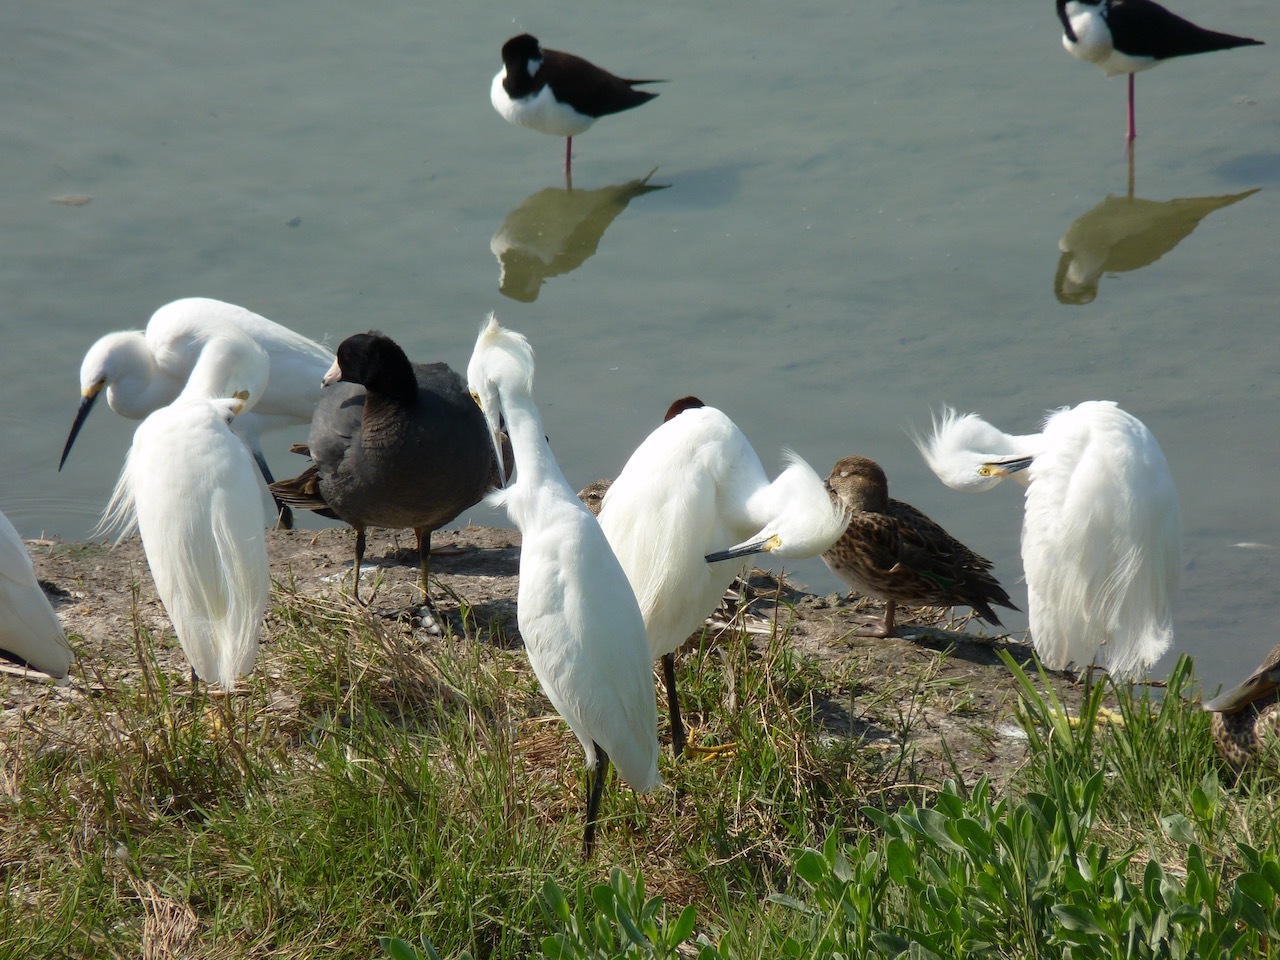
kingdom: Animalia
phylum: Chordata
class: Aves
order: Pelecaniformes
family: Ardeidae
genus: Egretta
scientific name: Egretta thula
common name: Snowy egret
